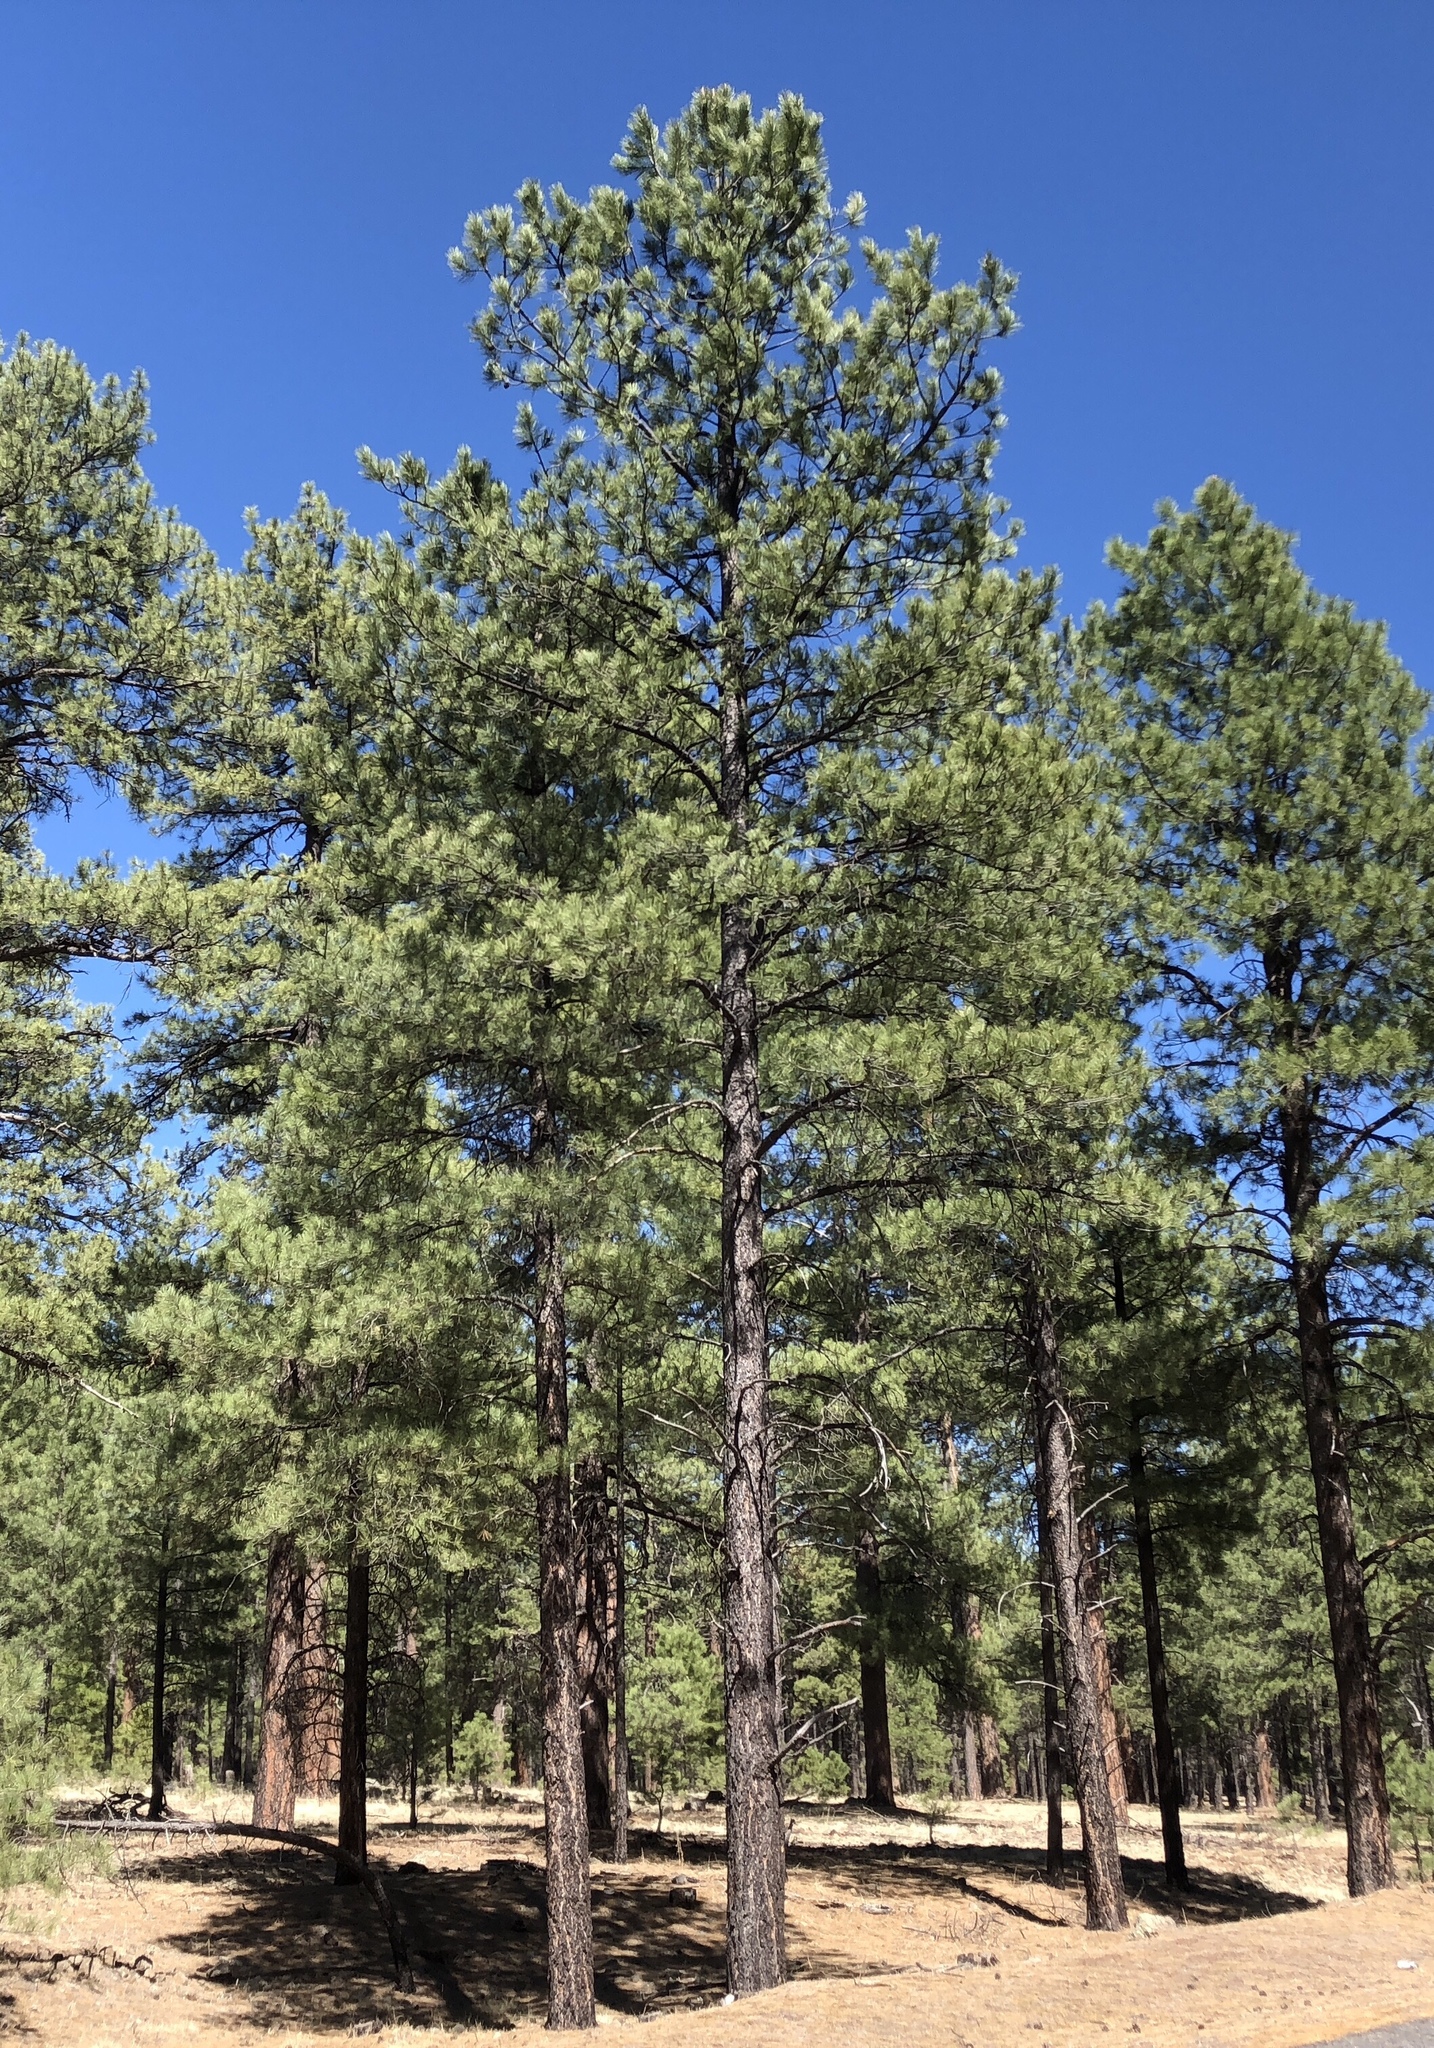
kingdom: Plantae
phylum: Tracheophyta
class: Pinopsida
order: Pinales
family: Pinaceae
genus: Pinus
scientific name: Pinus ponderosa
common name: Western yellow-pine
